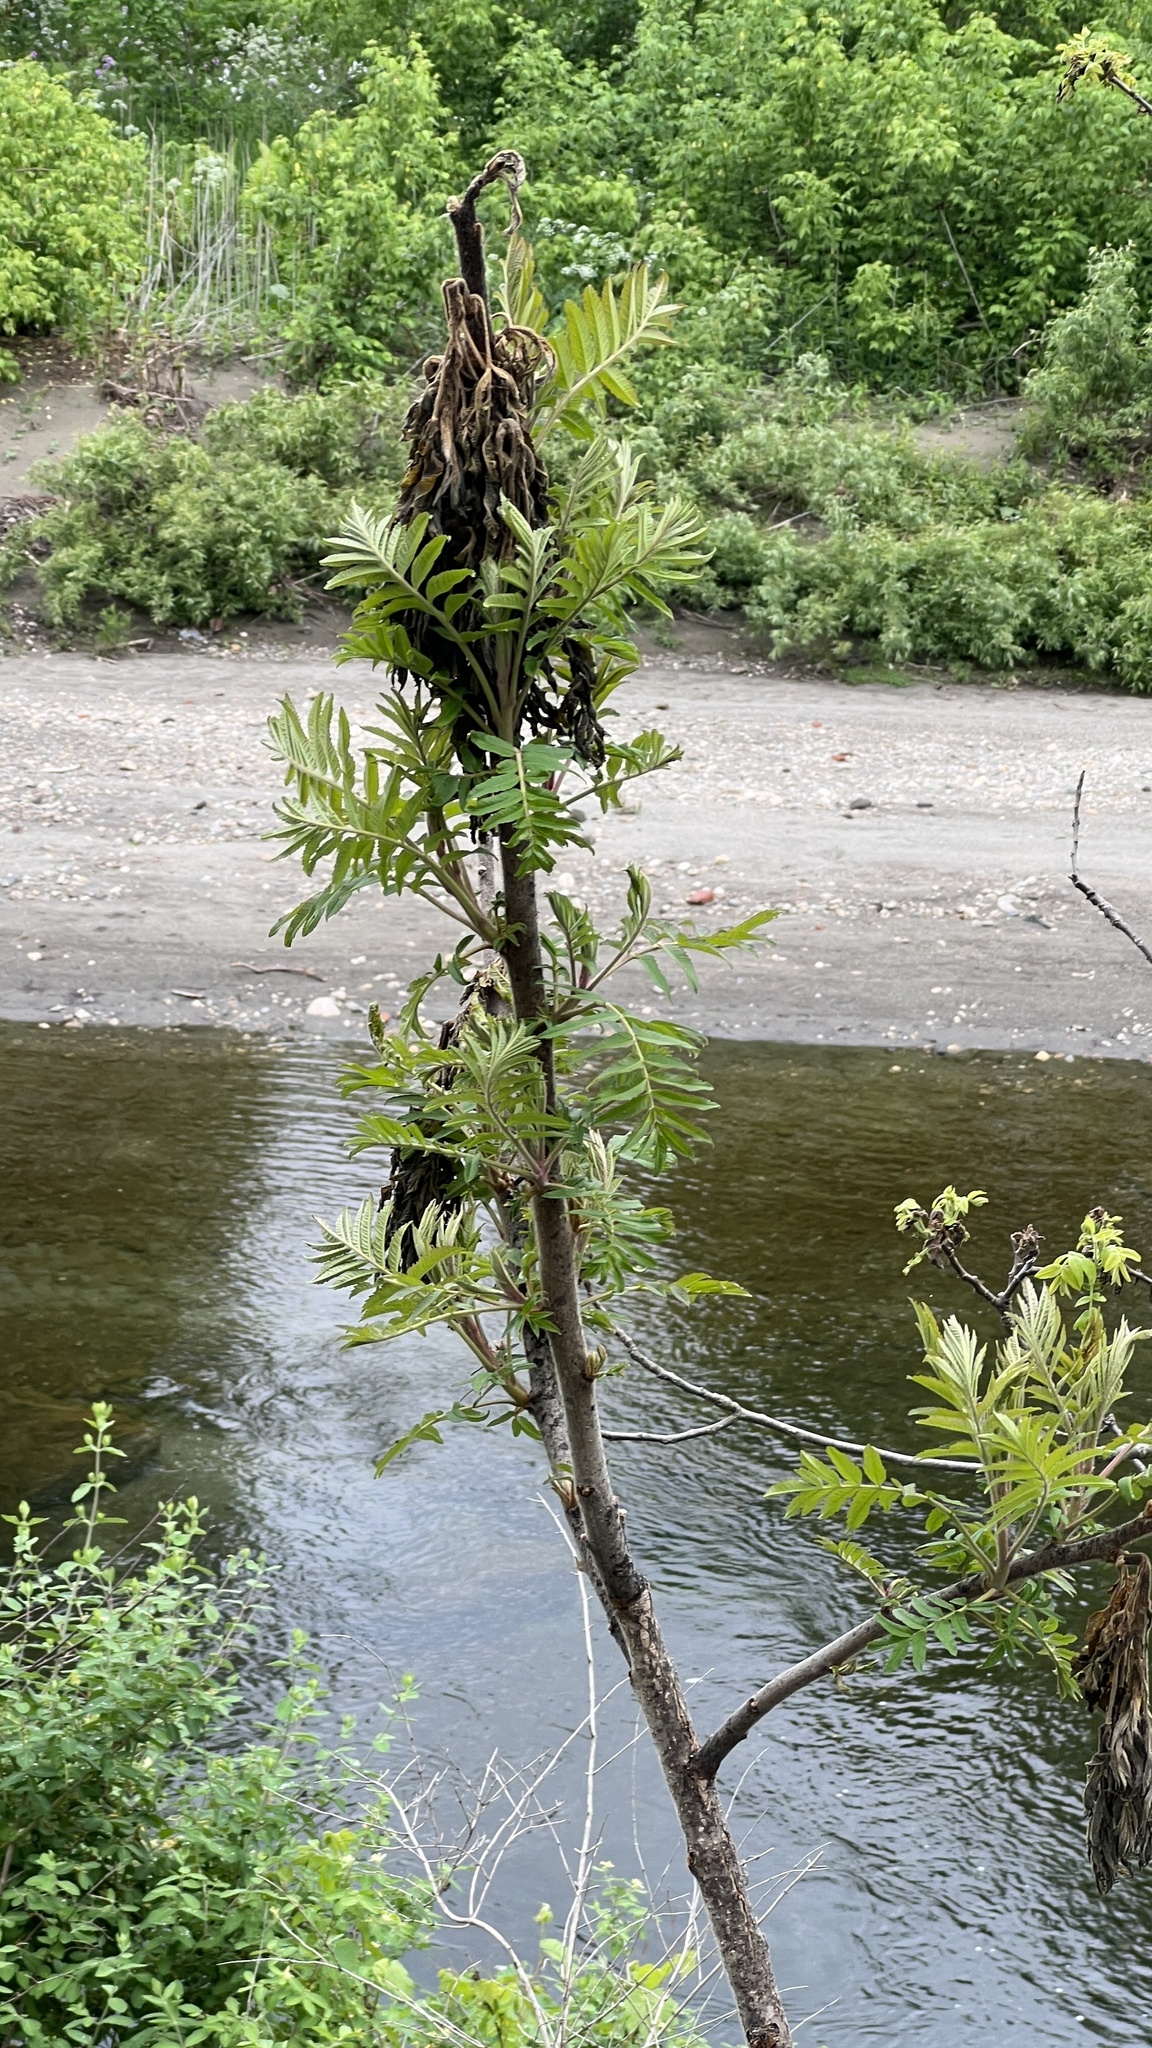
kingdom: Plantae
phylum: Tracheophyta
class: Magnoliopsida
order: Sapindales
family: Anacardiaceae
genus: Rhus
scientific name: Rhus typhina
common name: Staghorn sumac
